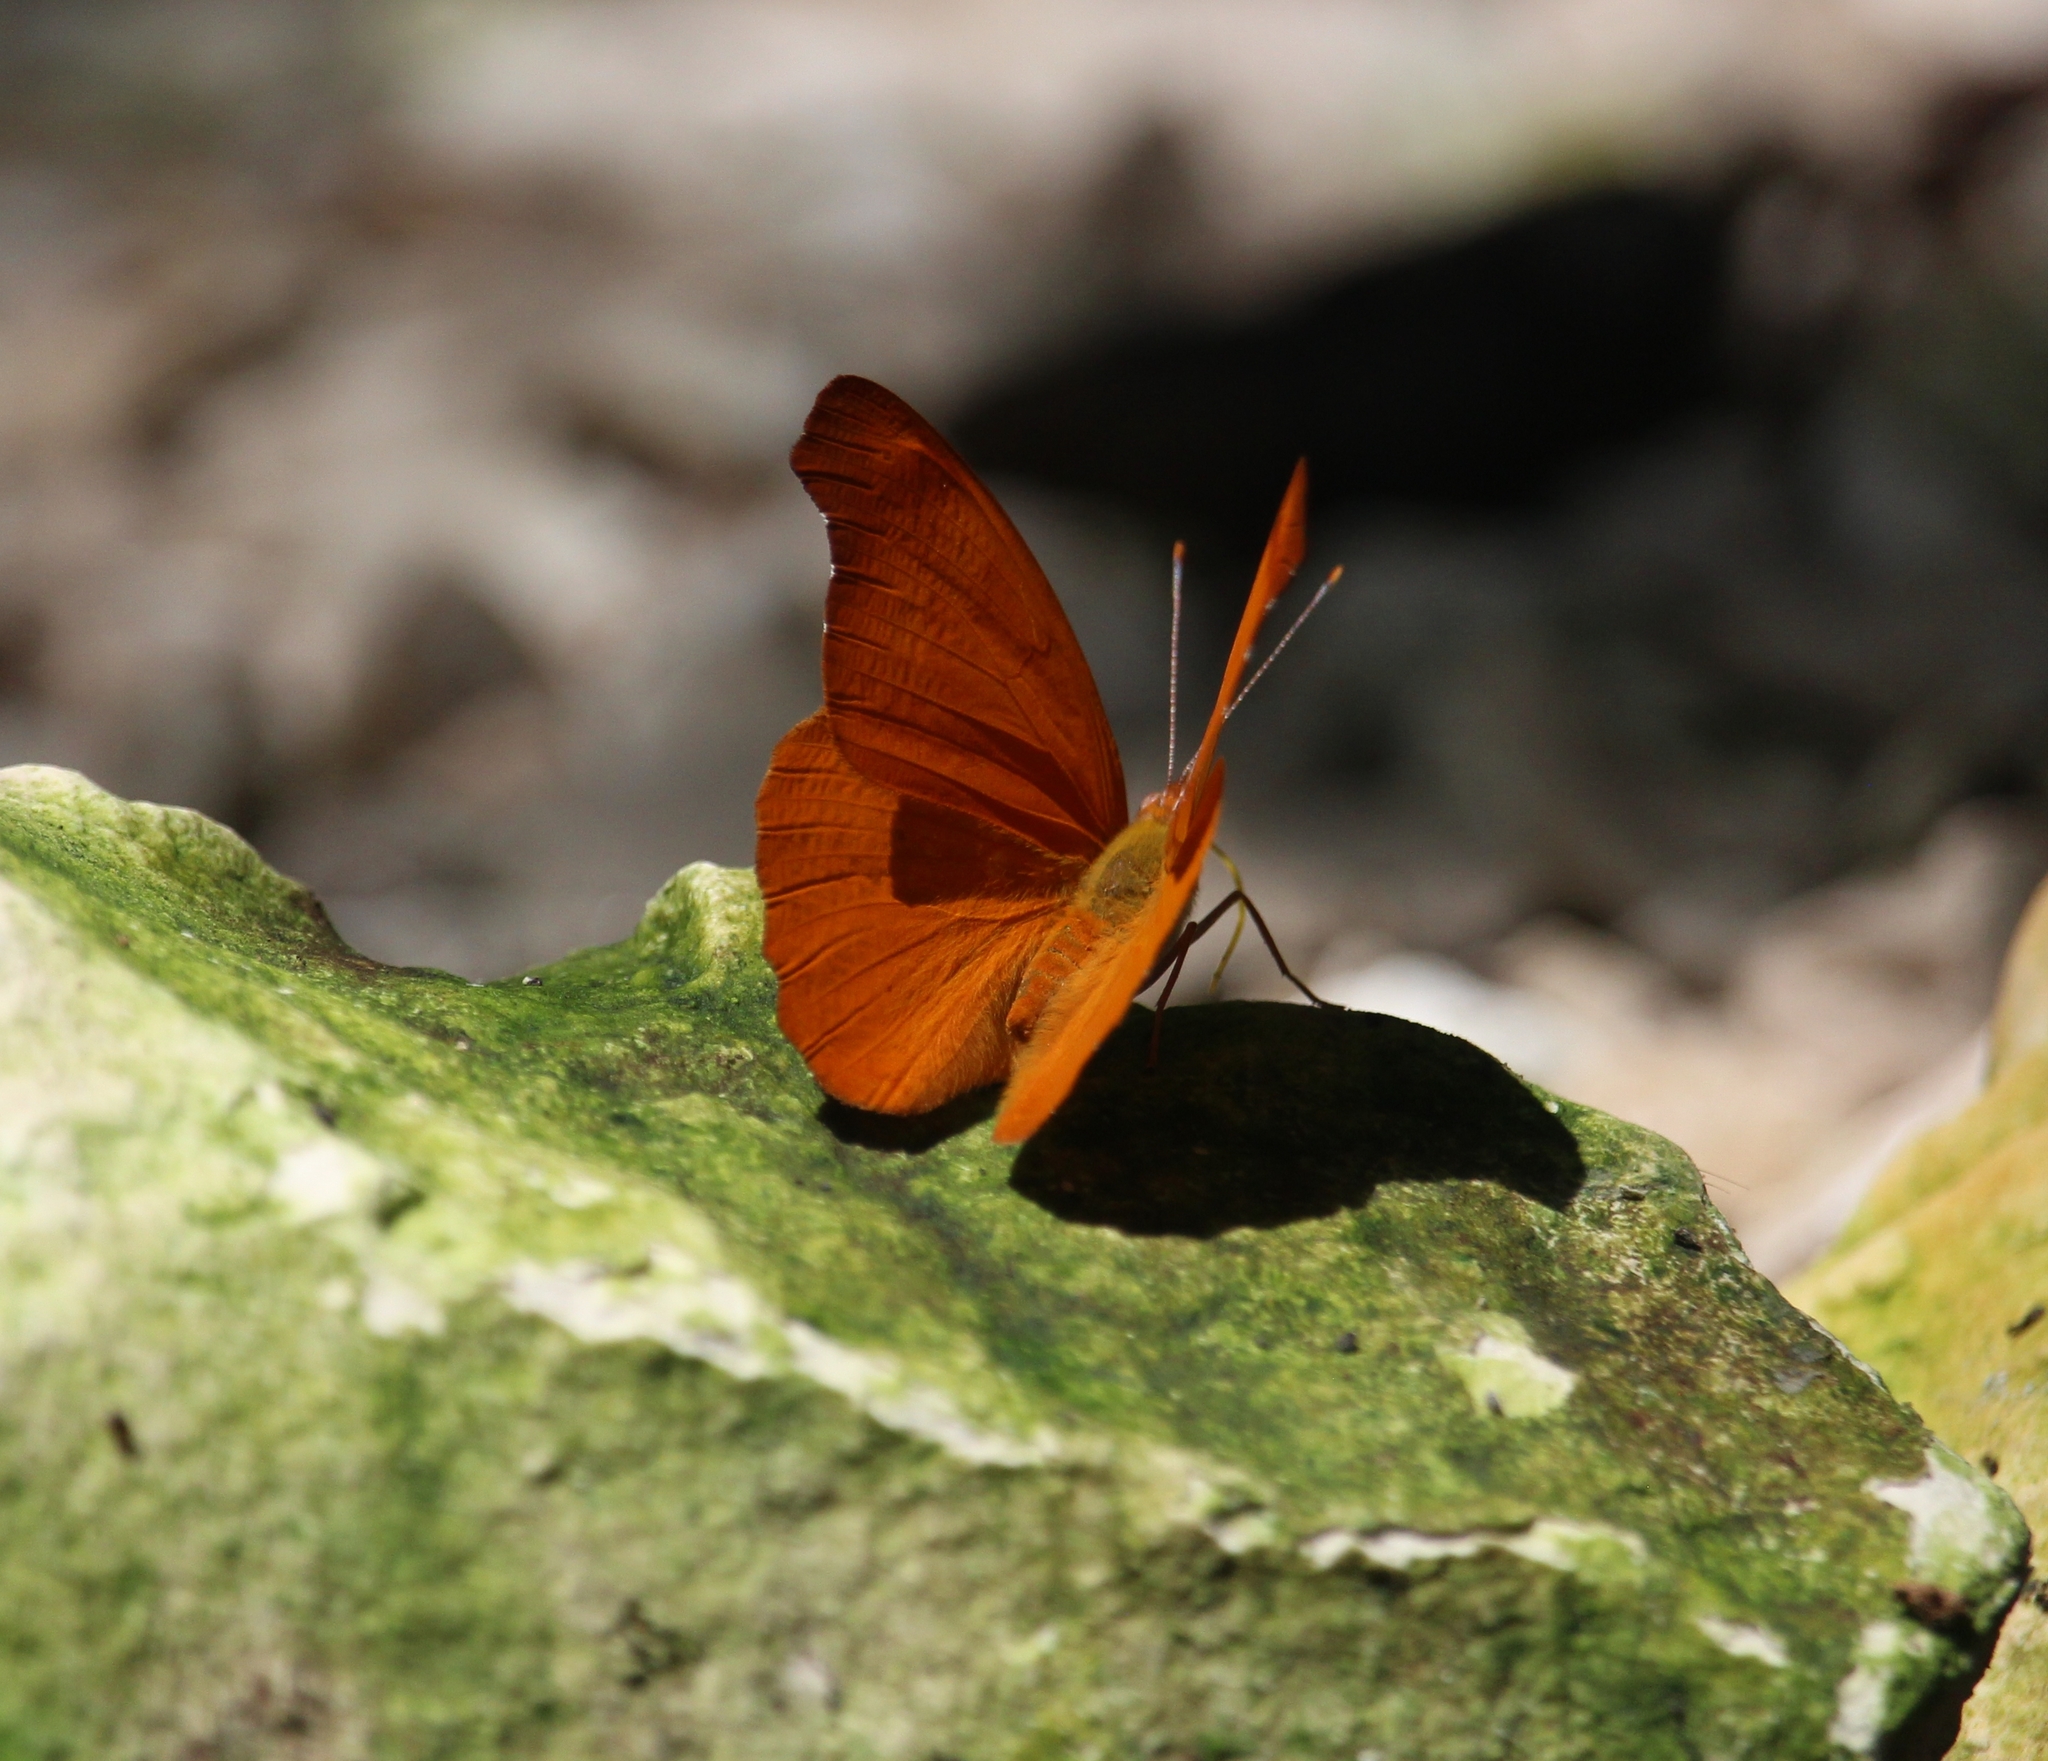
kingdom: Animalia
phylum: Arthropoda
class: Insecta
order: Lepidoptera
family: Nymphalidae
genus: Temenis
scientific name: Temenis laothoe
